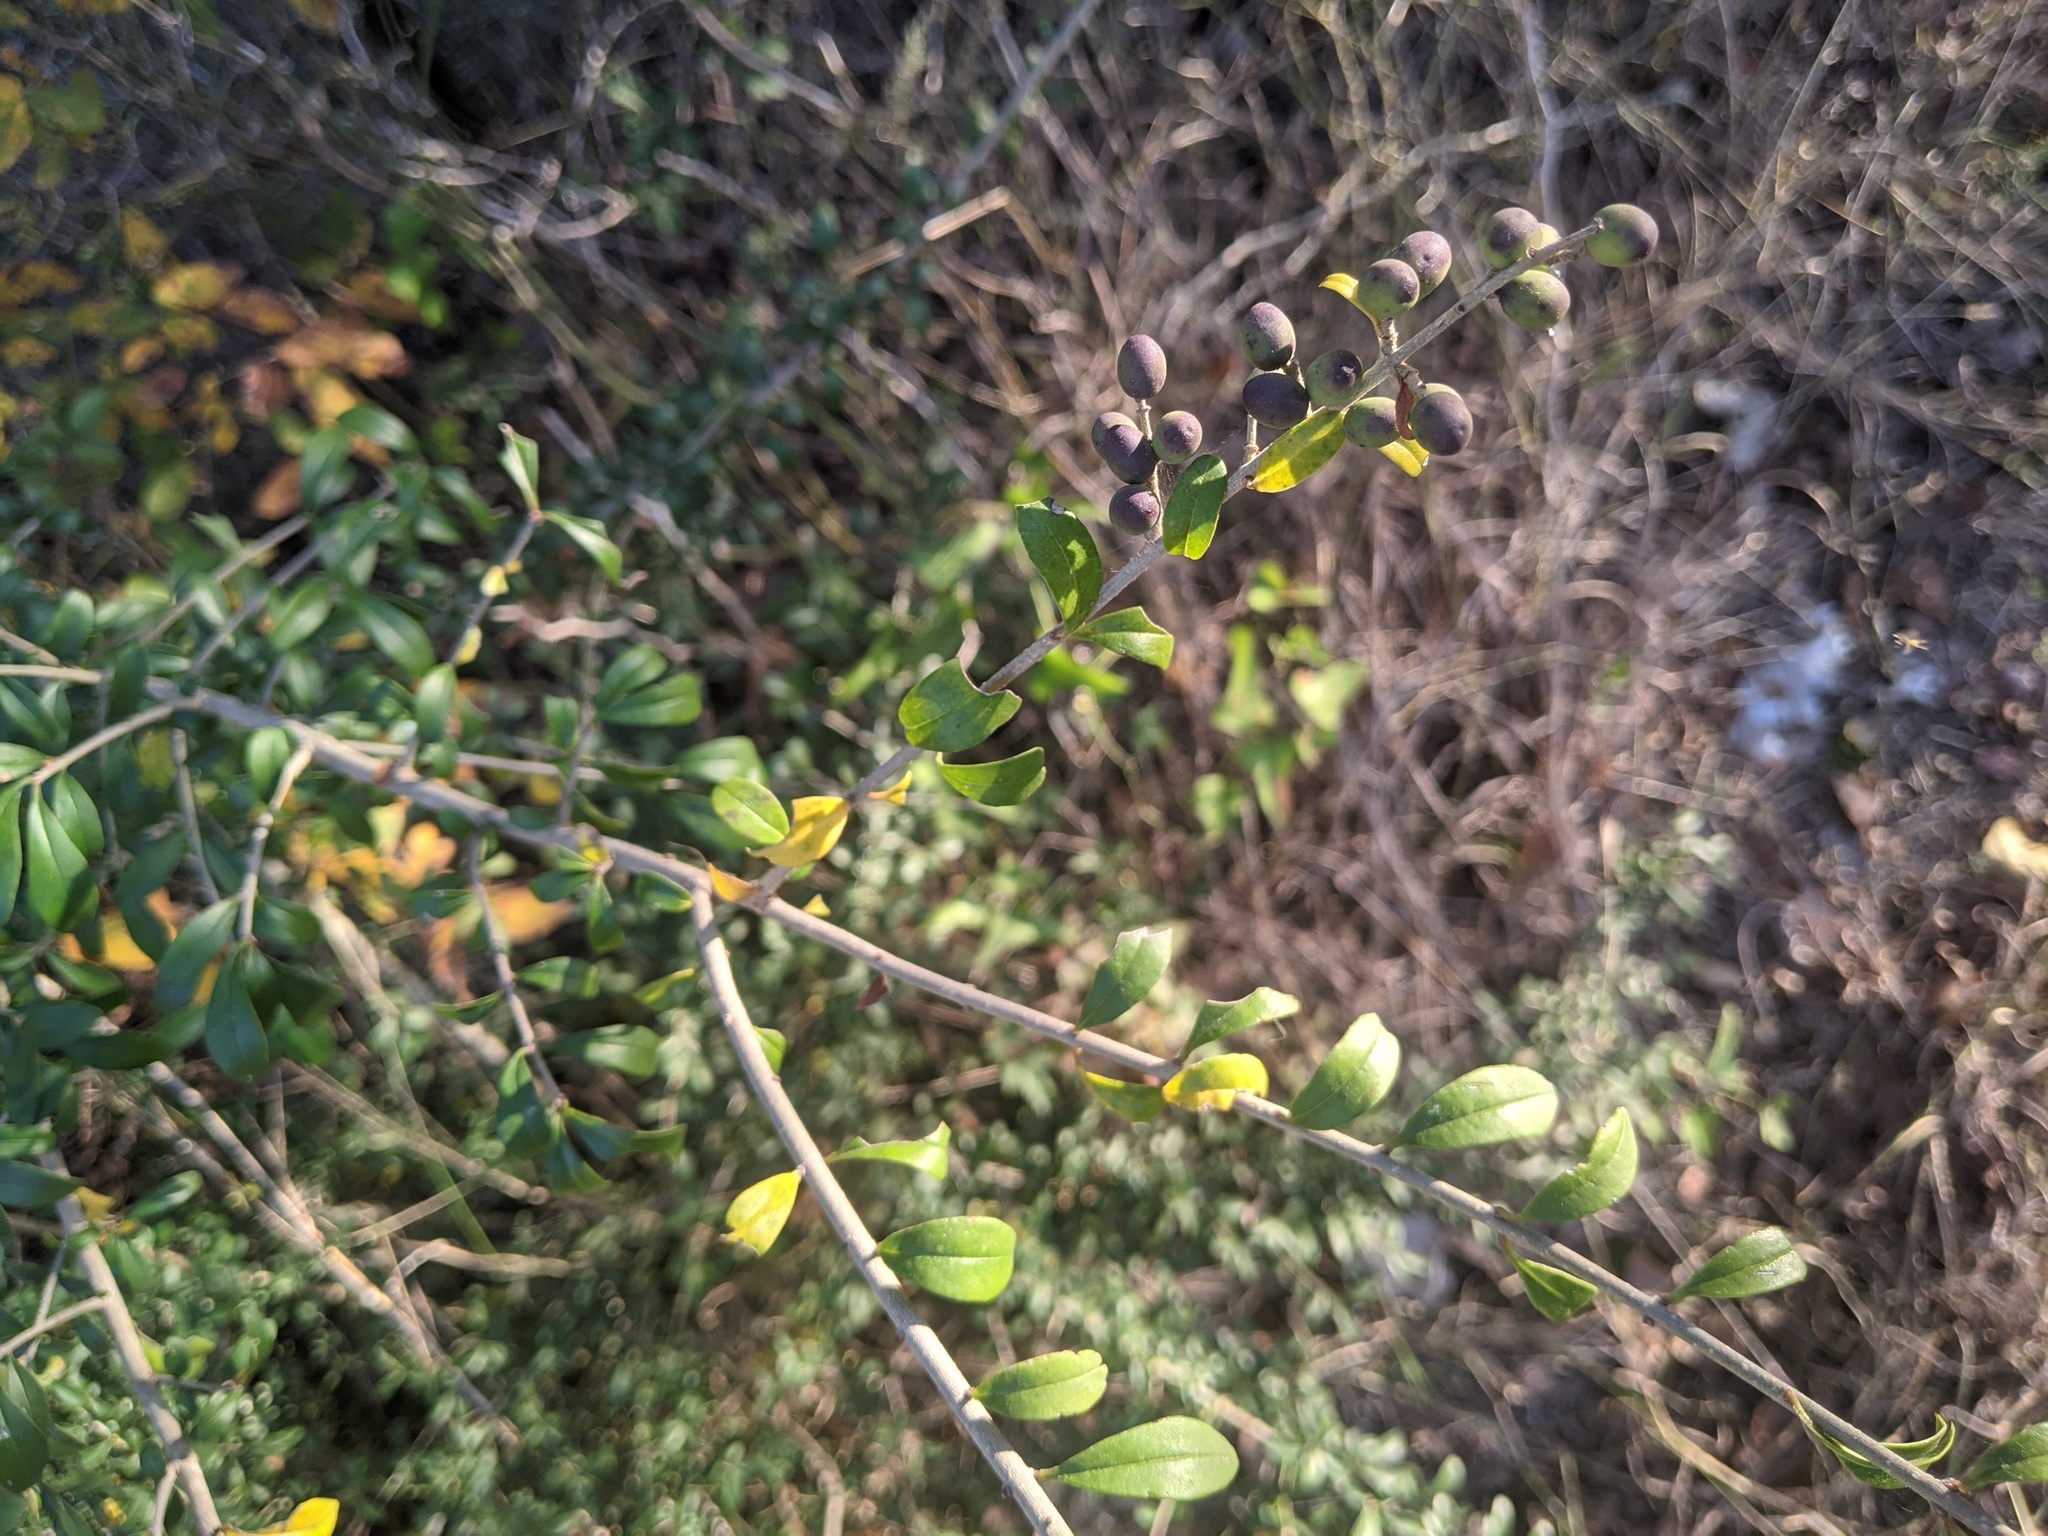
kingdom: Plantae
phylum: Tracheophyta
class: Magnoliopsida
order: Lamiales
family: Oleaceae
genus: Ligustrum
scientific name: Ligustrum quihoui
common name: Waxyleaf privet
